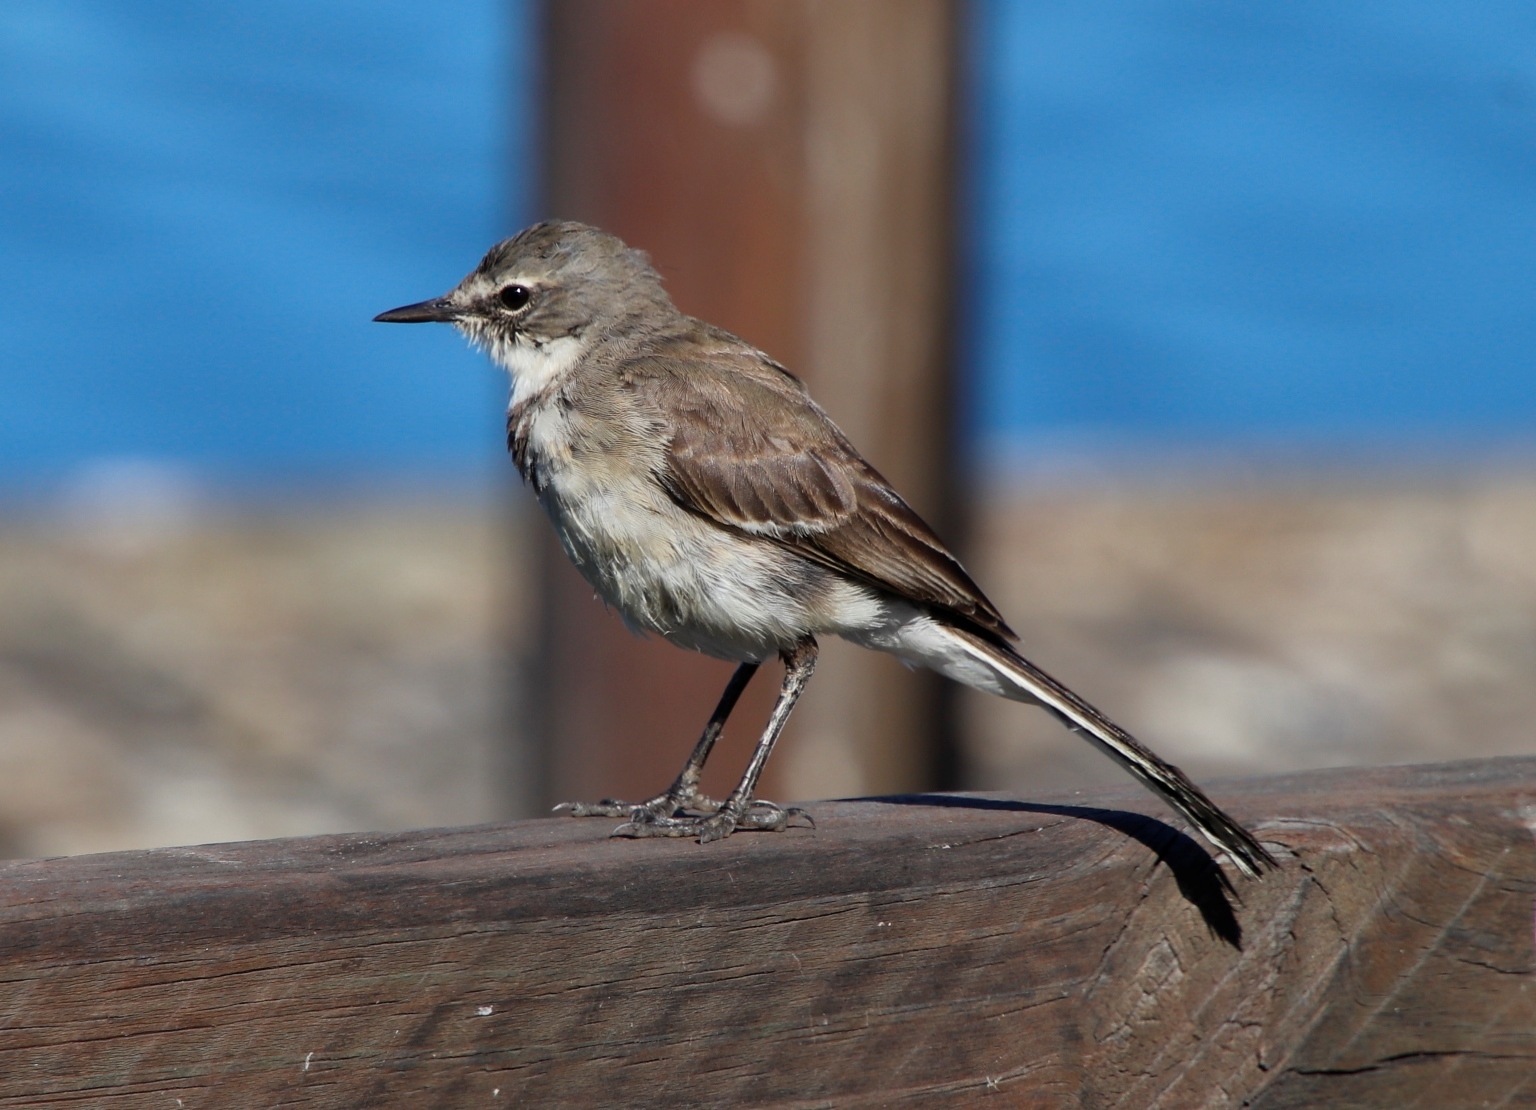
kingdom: Animalia
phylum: Chordata
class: Aves
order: Passeriformes
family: Motacillidae
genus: Motacilla
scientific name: Motacilla capensis
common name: Cape wagtail
